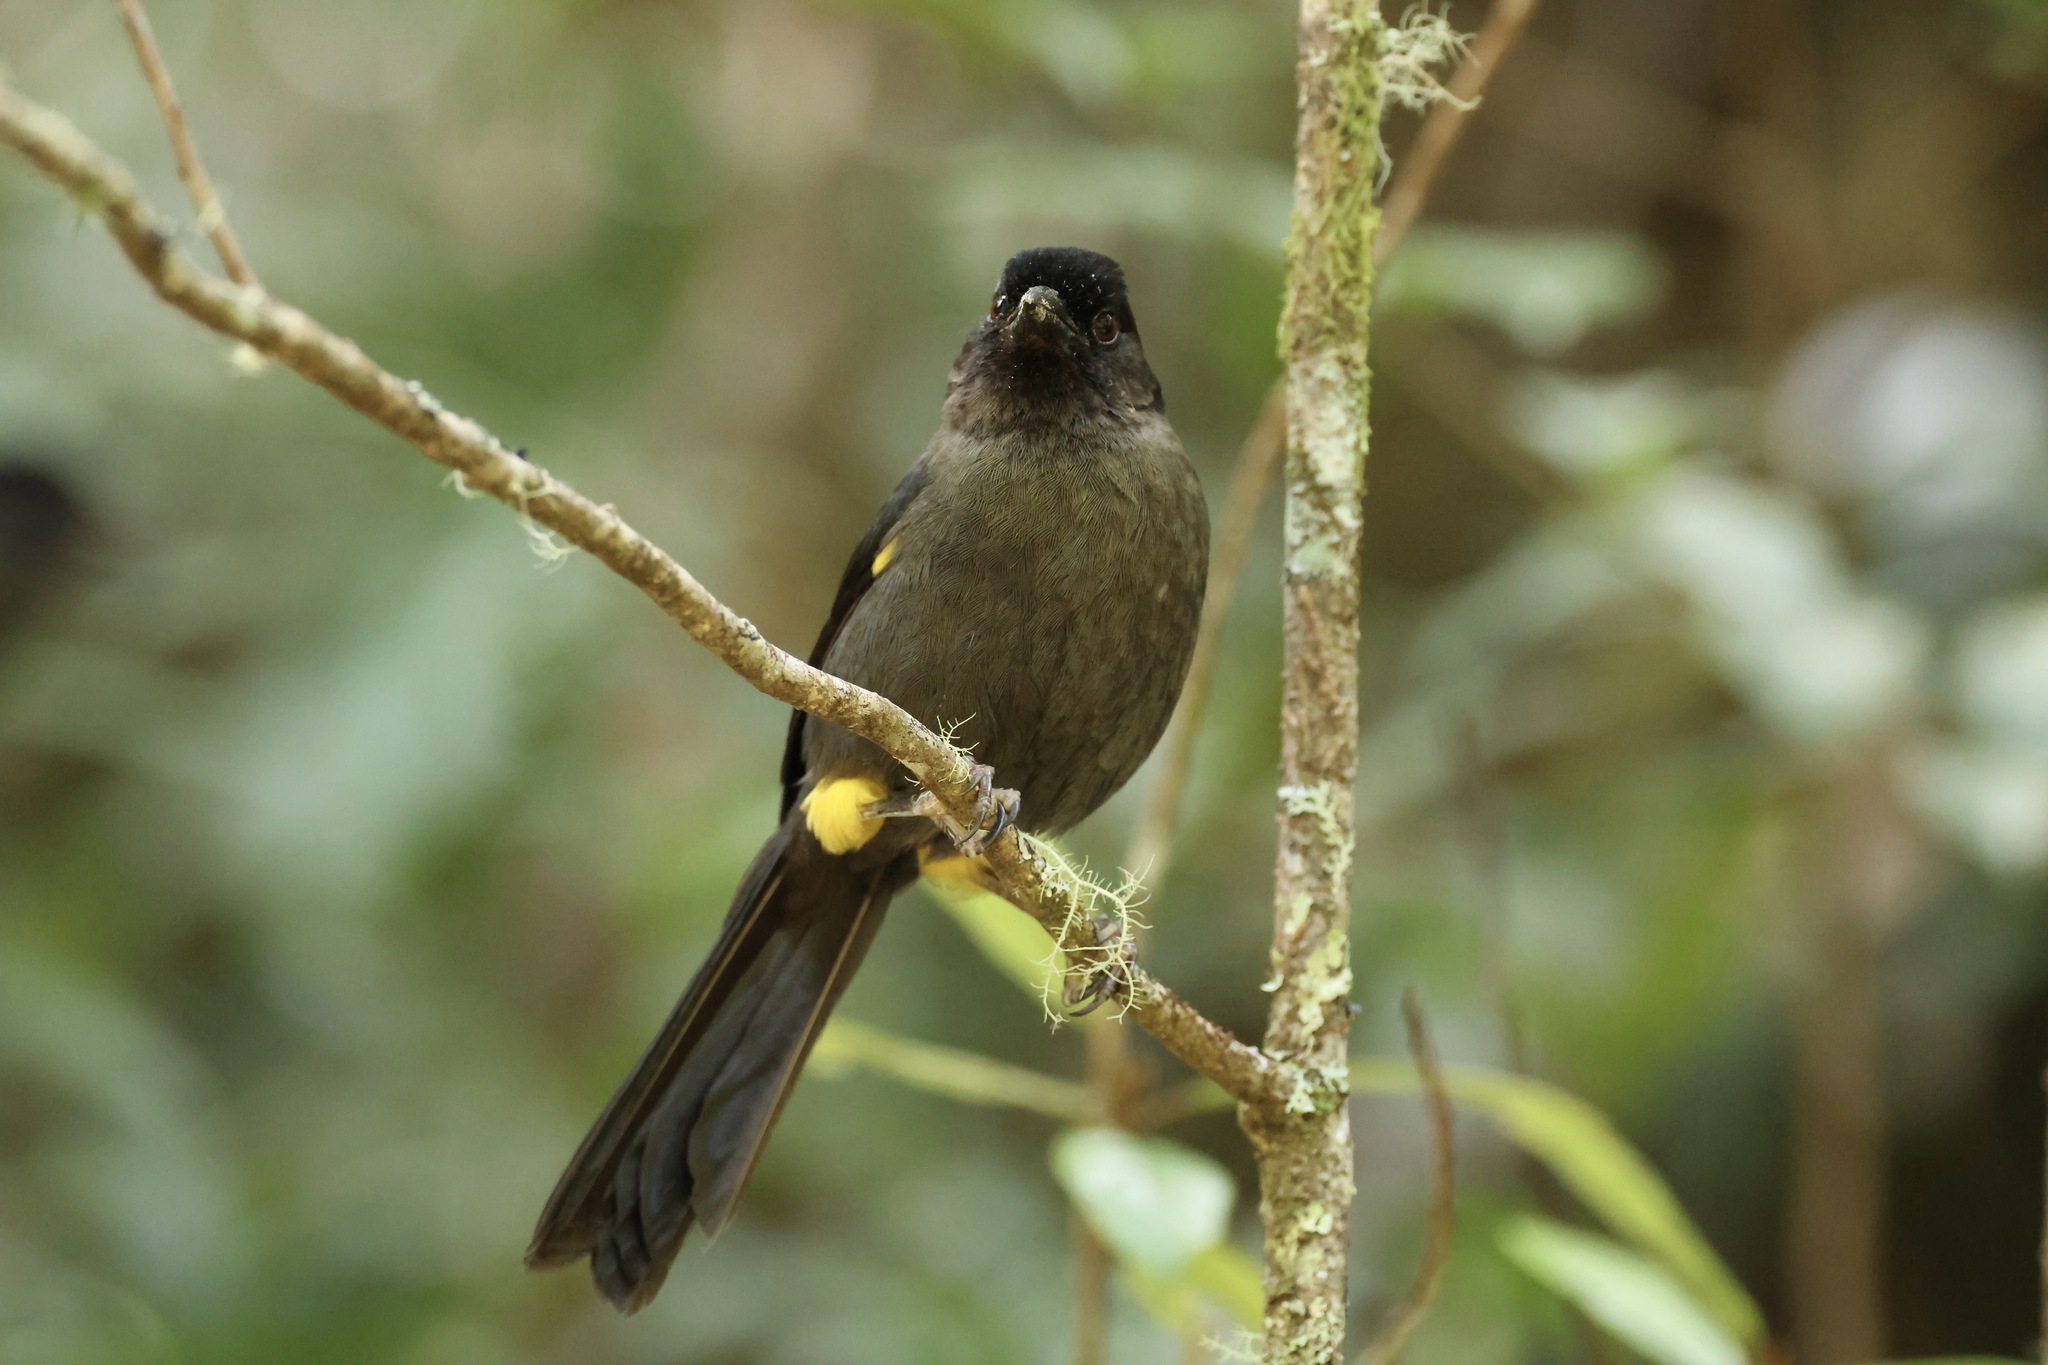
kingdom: Animalia
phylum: Chordata
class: Aves
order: Passeriformes
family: Passerellidae
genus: Atlapetes
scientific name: Atlapetes tibialis
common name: Yellow-thighed brushfinch
